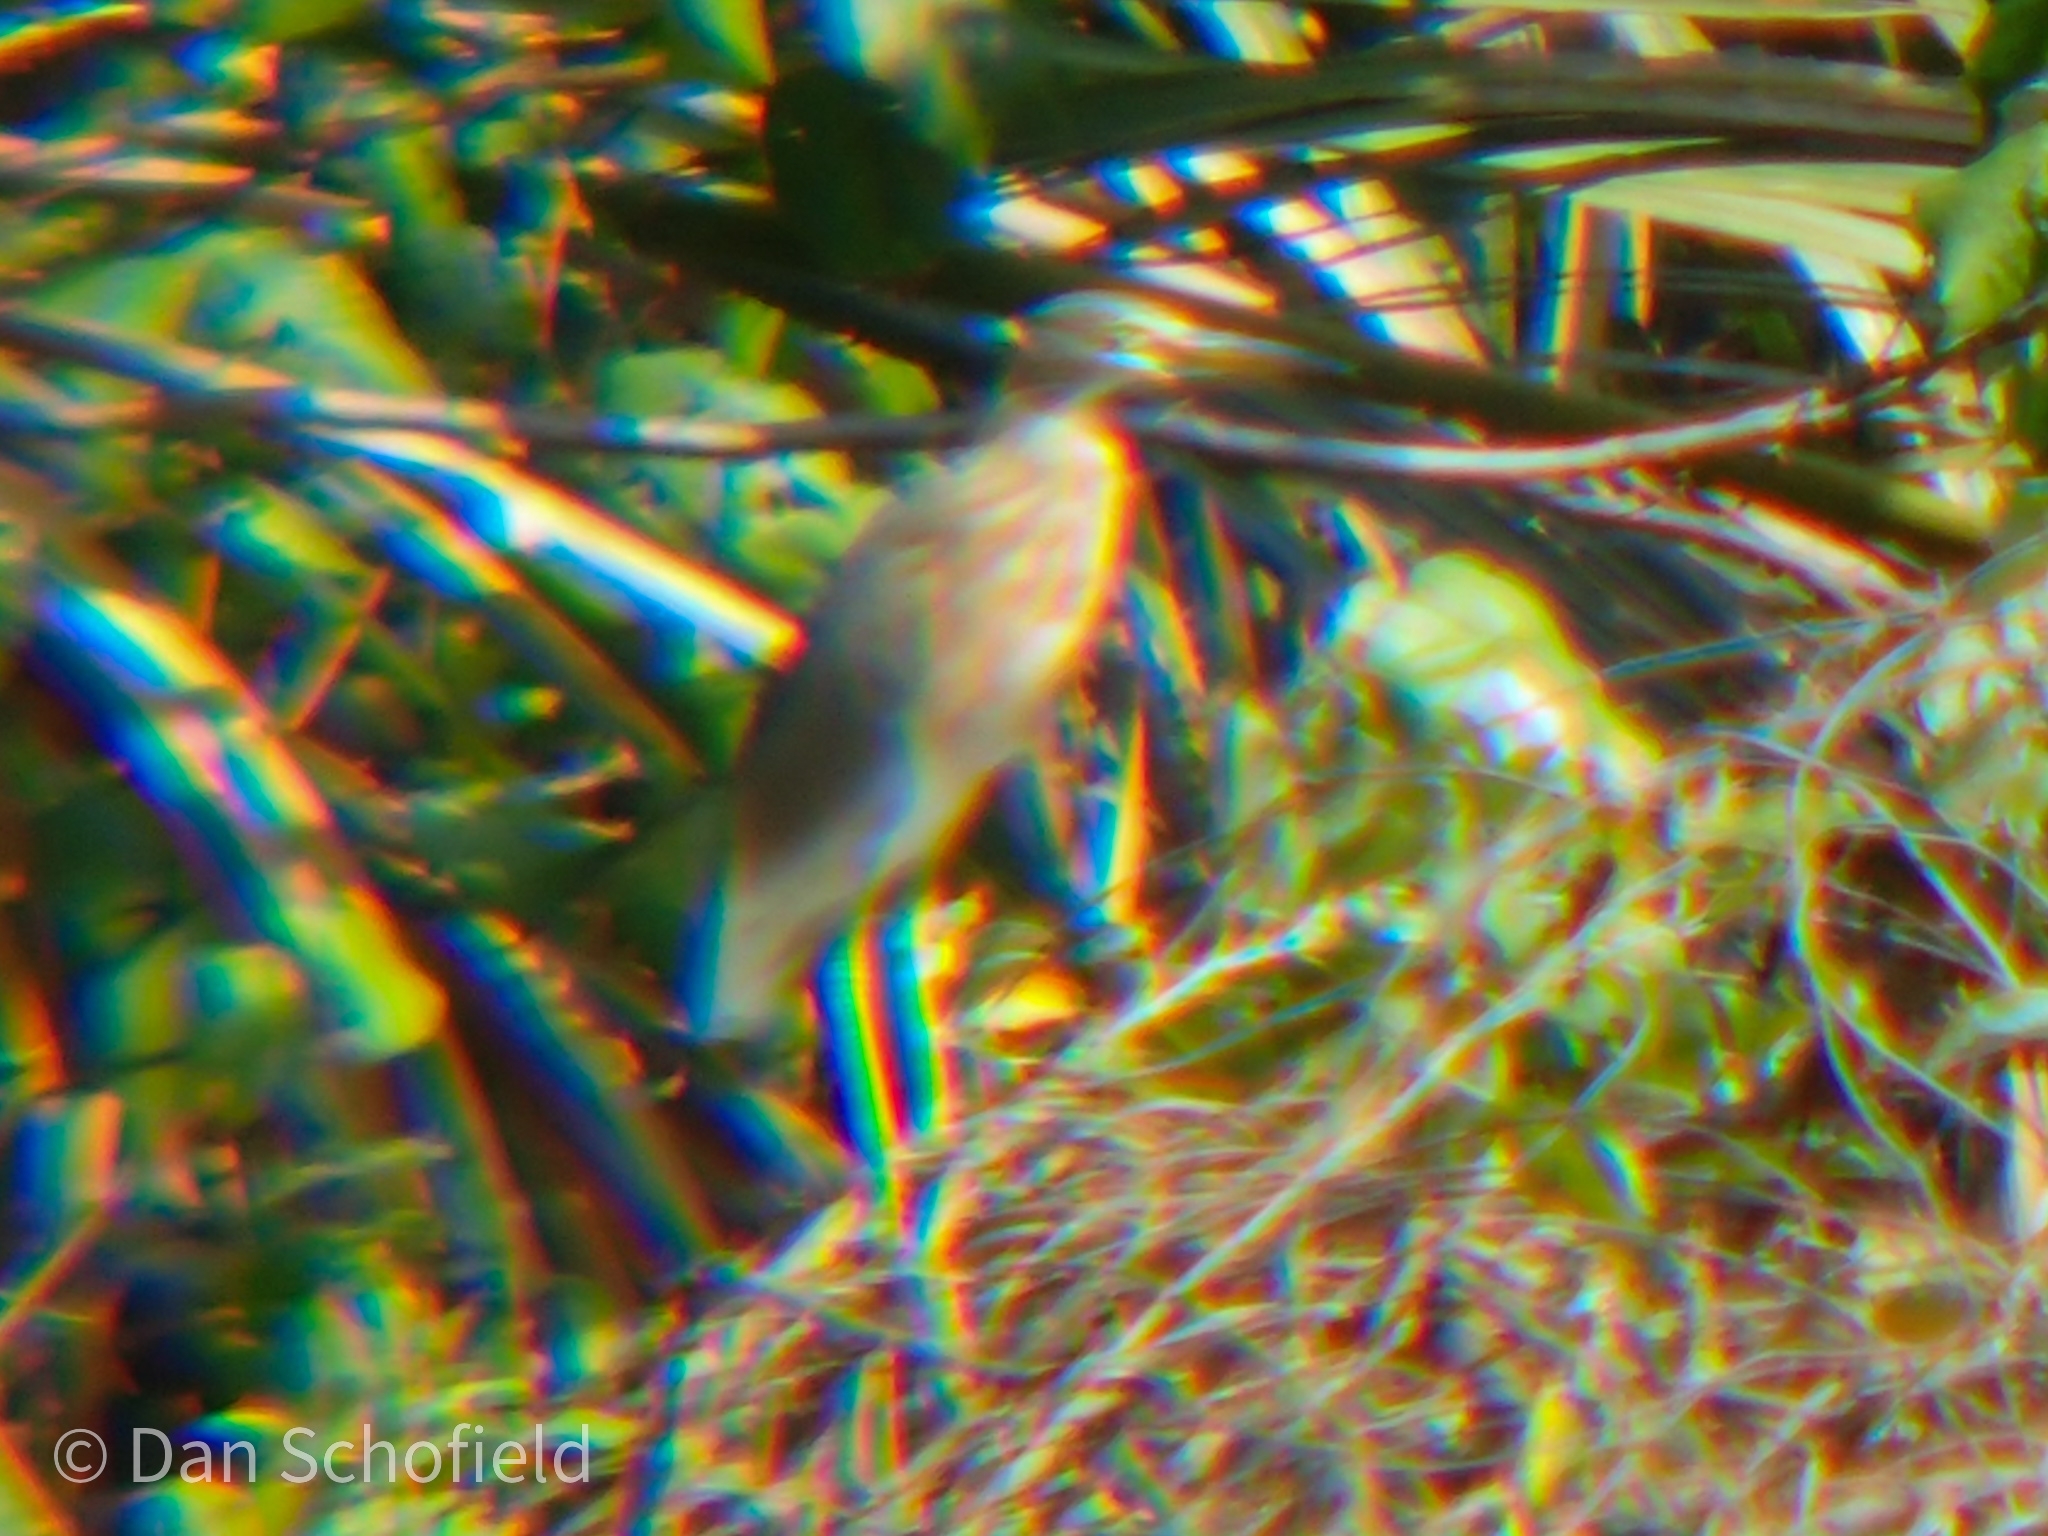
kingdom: Animalia
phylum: Chordata
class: Aves
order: Pelecaniformes
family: Ardeidae
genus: Ardeola
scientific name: Ardeola speciosa
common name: Javan pond heron
